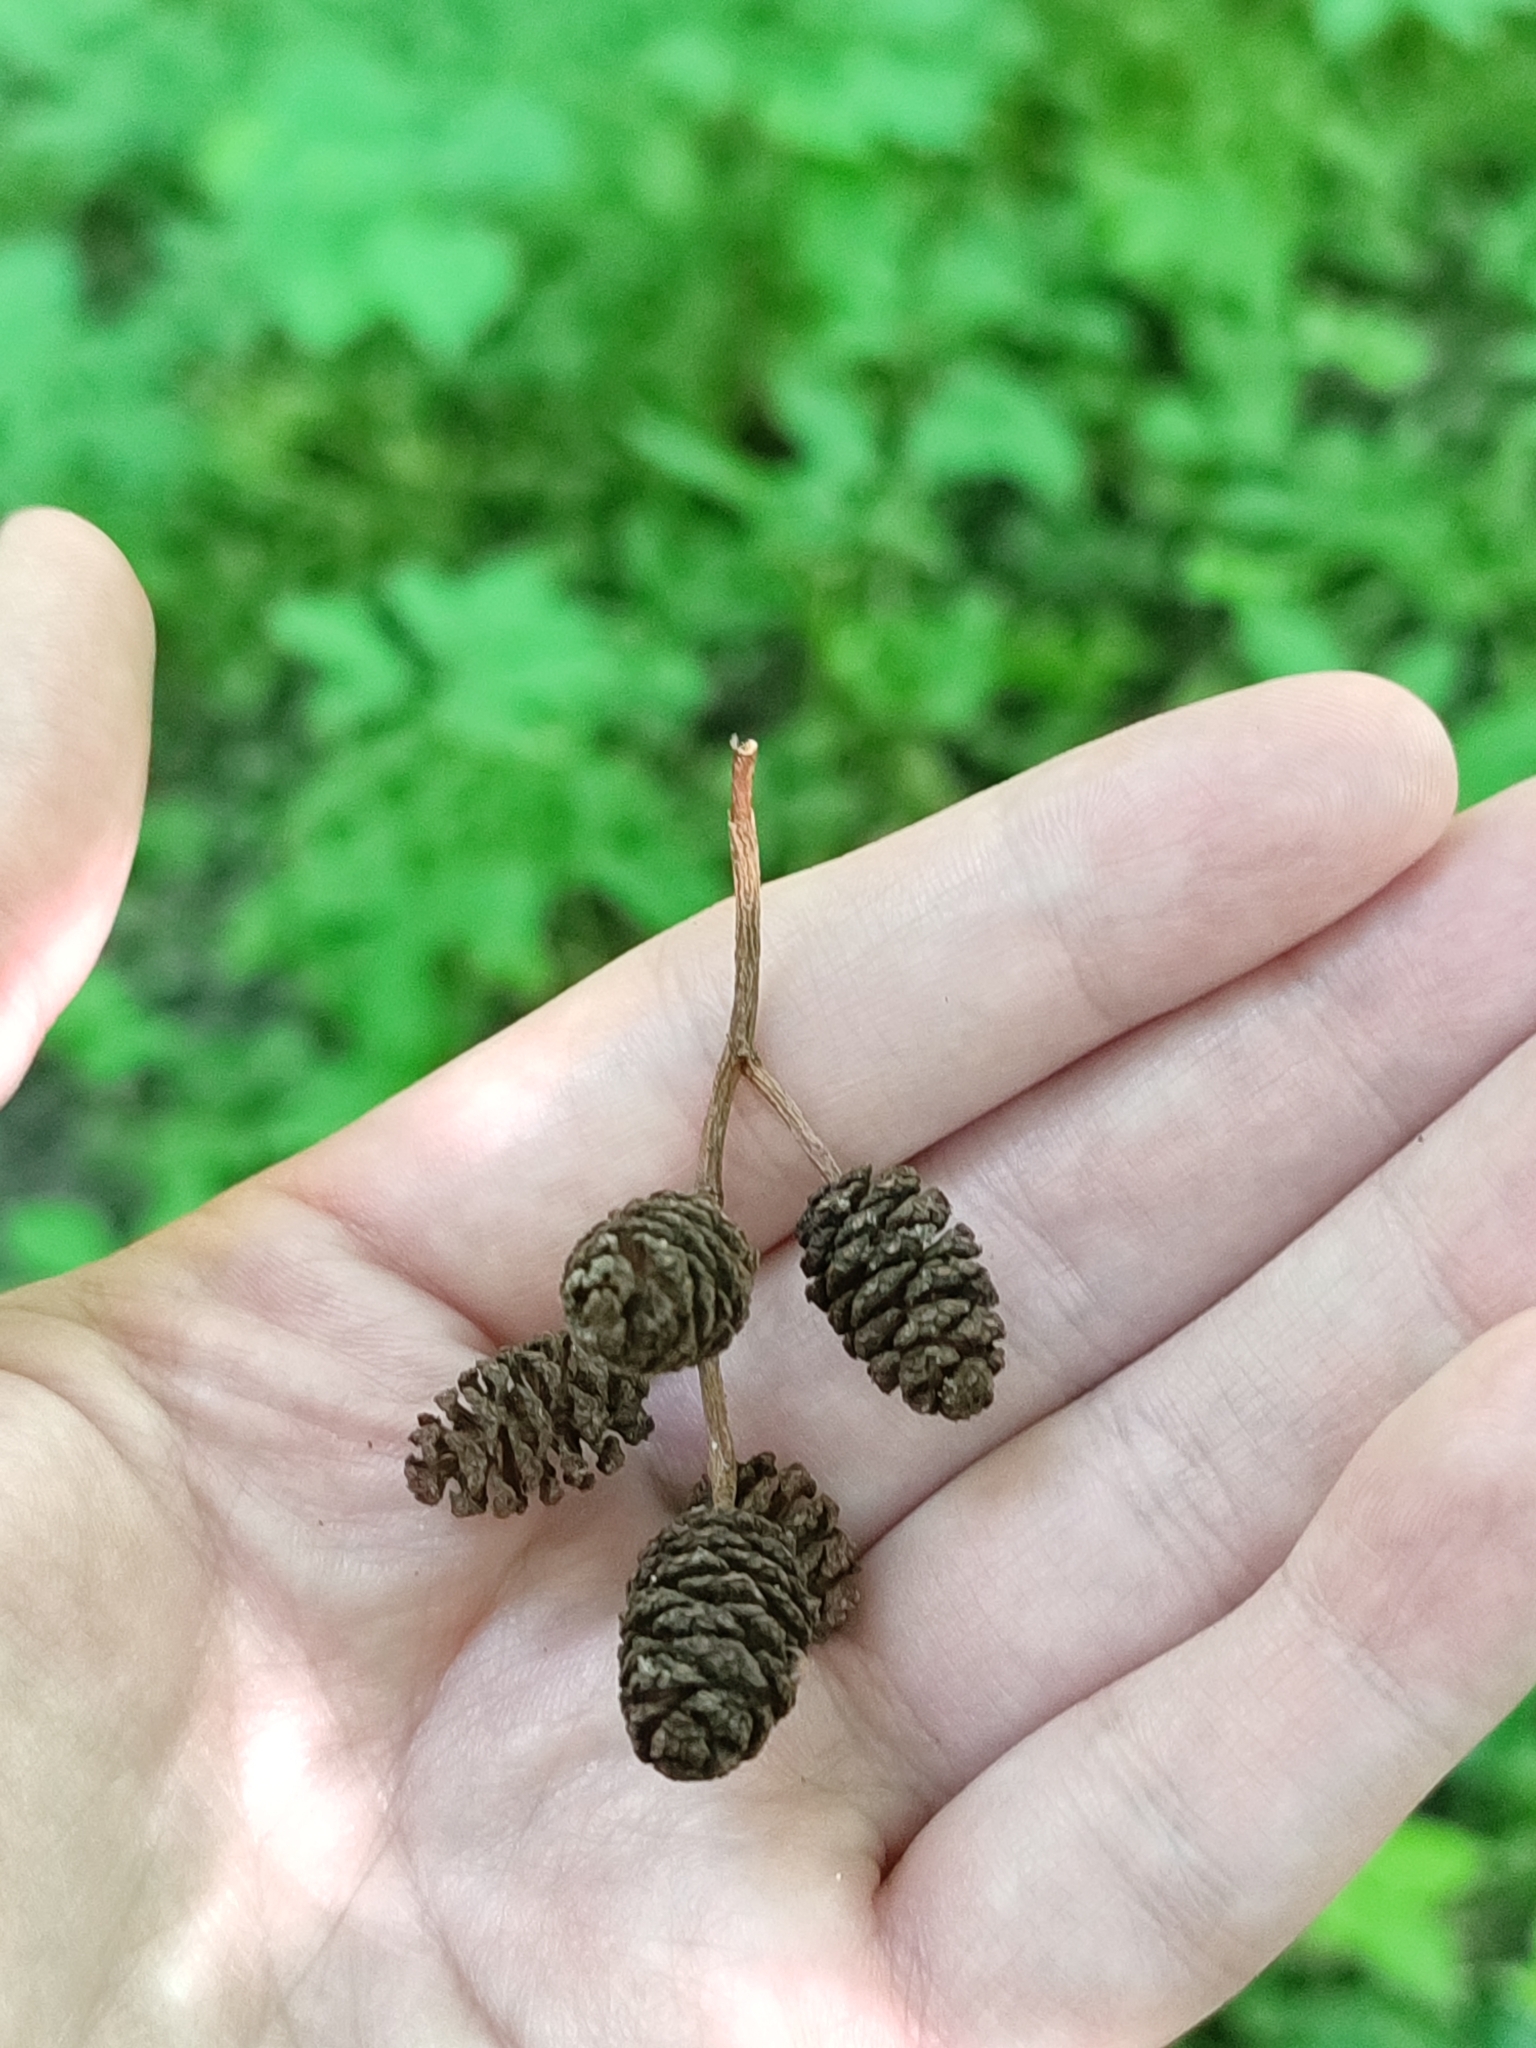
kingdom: Plantae
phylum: Tracheophyta
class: Magnoliopsida
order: Fagales
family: Betulaceae
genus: Alnus
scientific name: Alnus glutinosa
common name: Black alder
